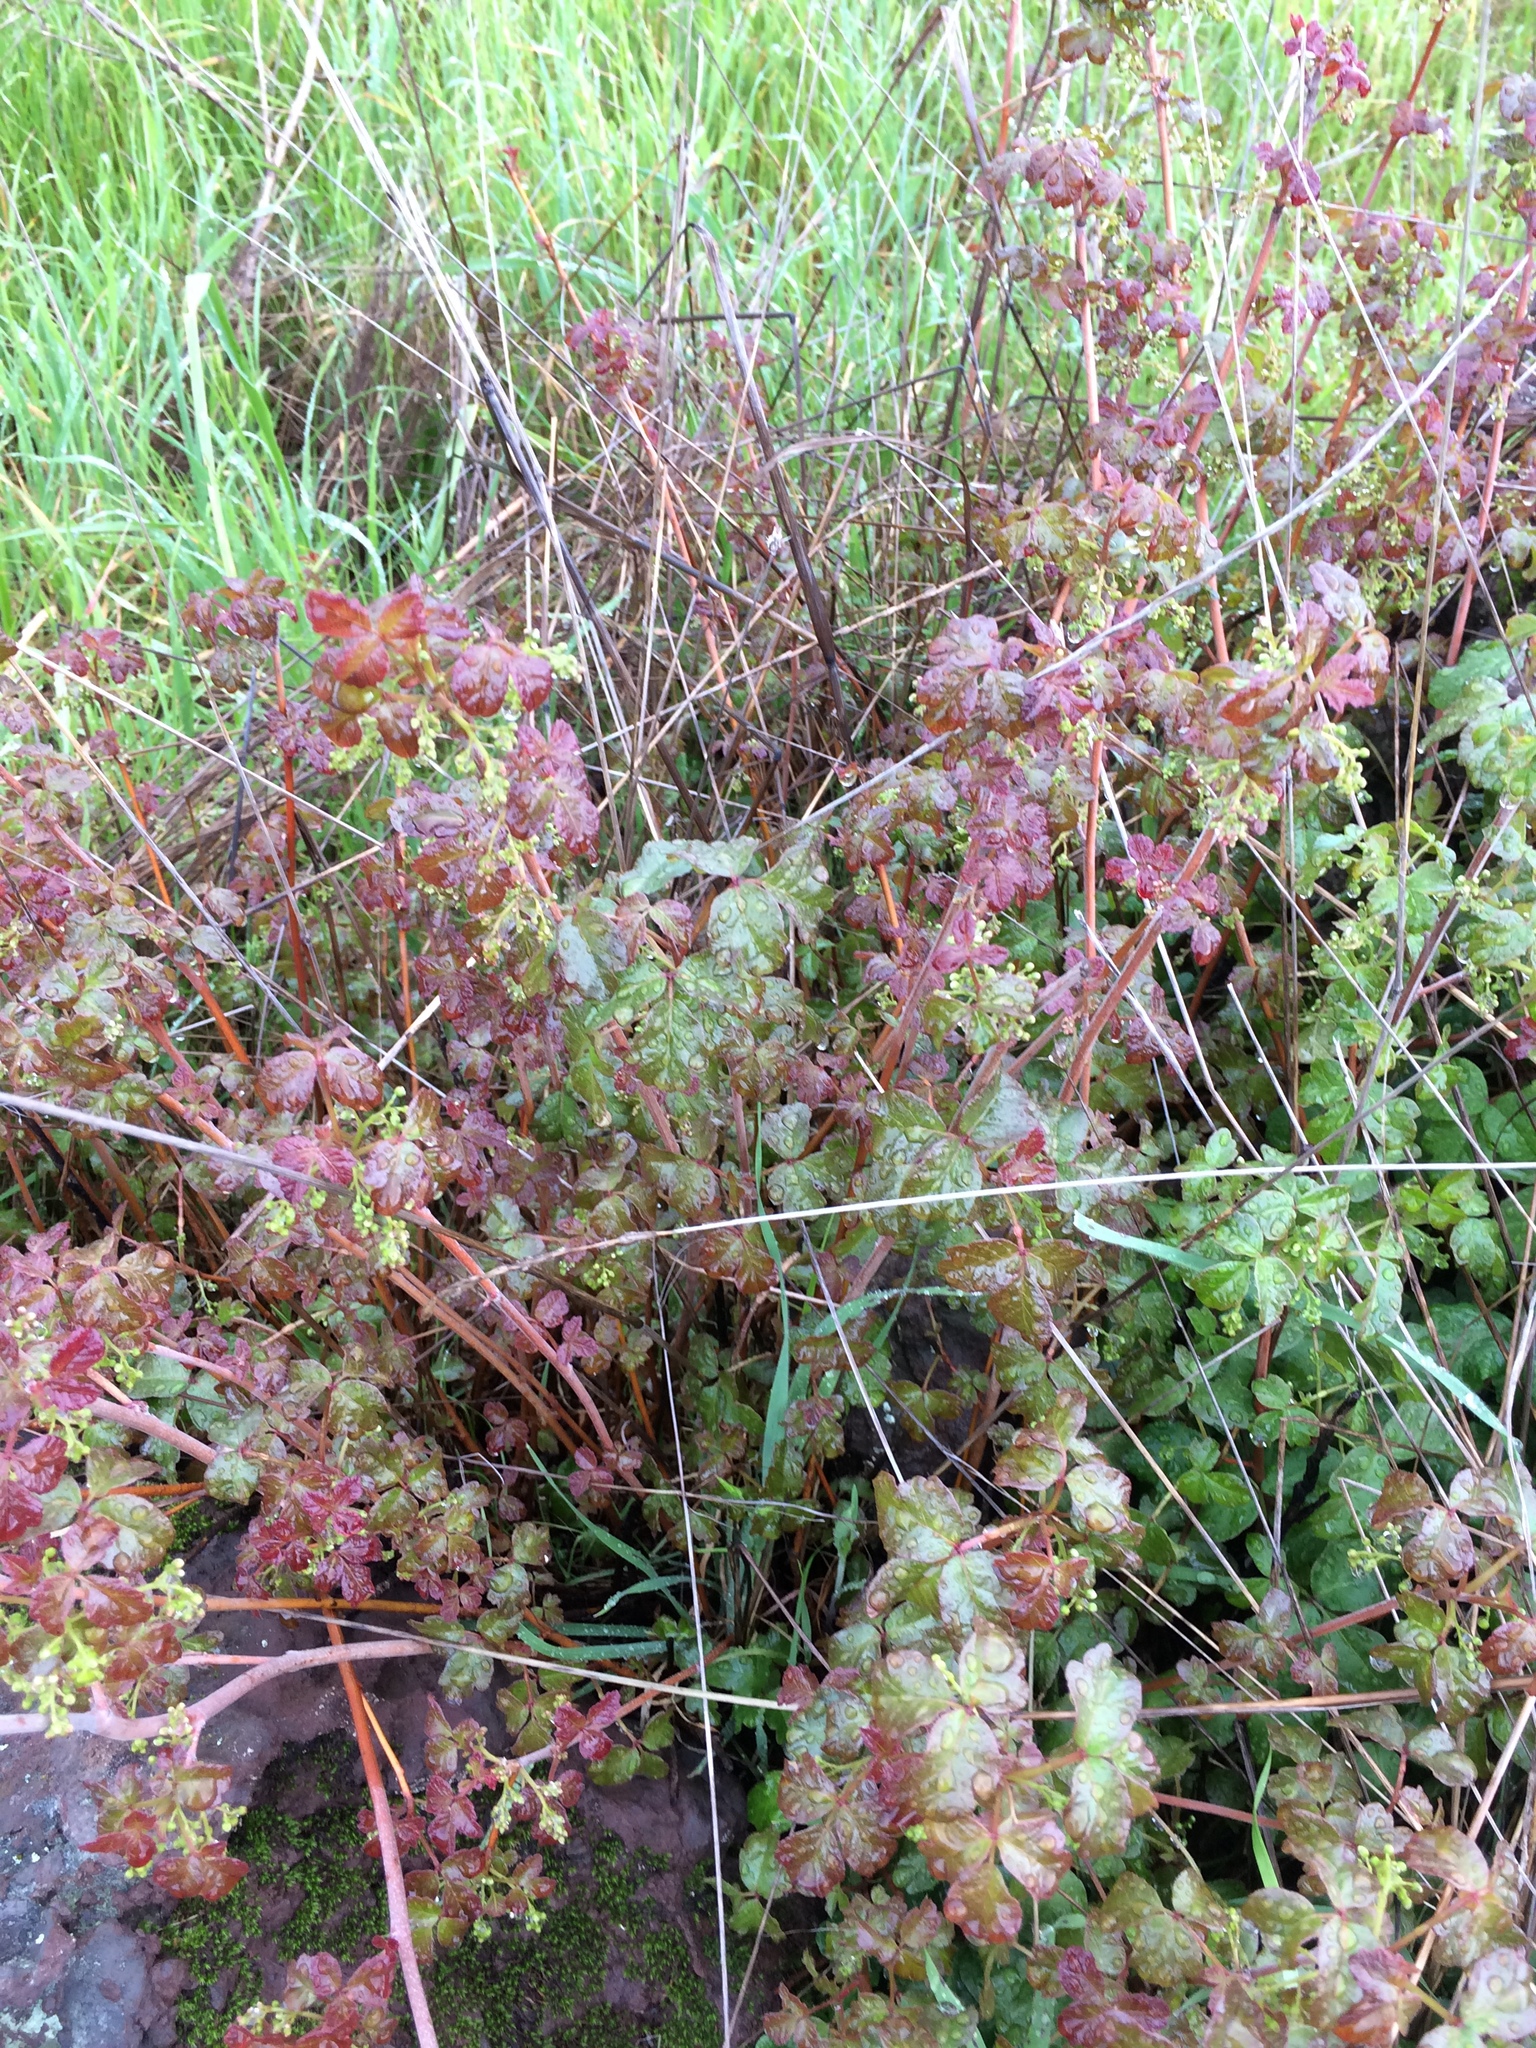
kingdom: Plantae
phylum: Tracheophyta
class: Magnoliopsida
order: Sapindales
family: Anacardiaceae
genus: Toxicodendron
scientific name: Toxicodendron diversilobum
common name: Pacific poison-oak
